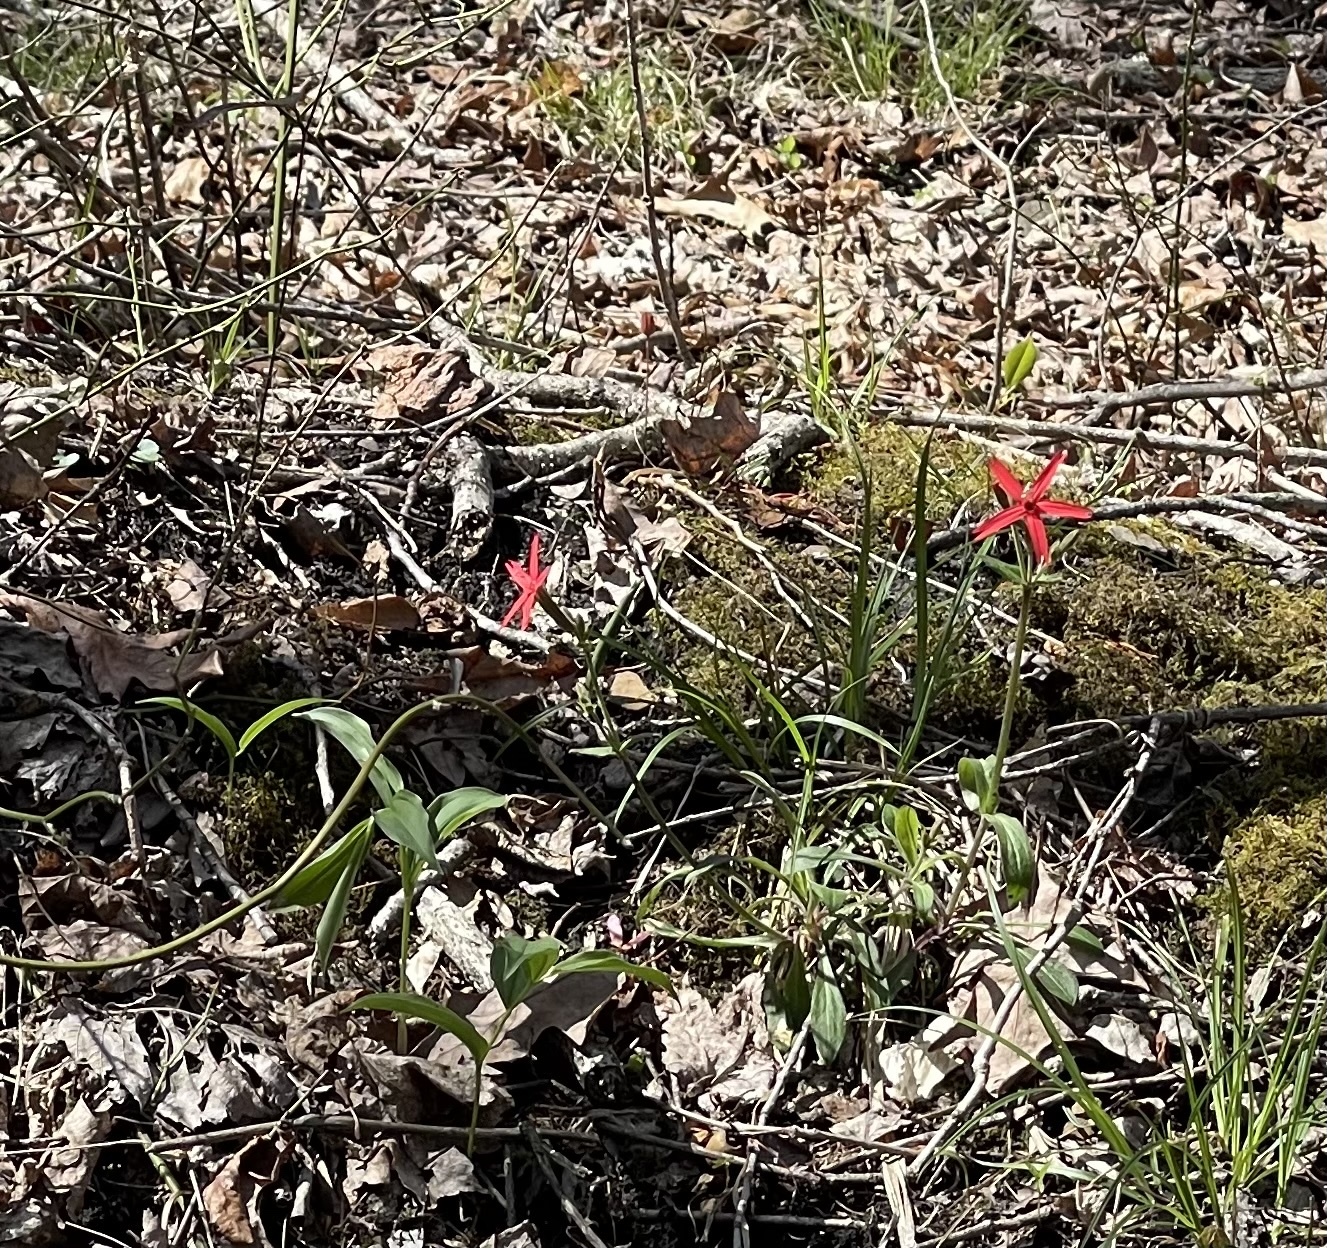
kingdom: Plantae
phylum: Tracheophyta
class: Magnoliopsida
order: Caryophyllales
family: Caryophyllaceae
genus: Silene
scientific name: Silene virginica
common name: Fire-pink
